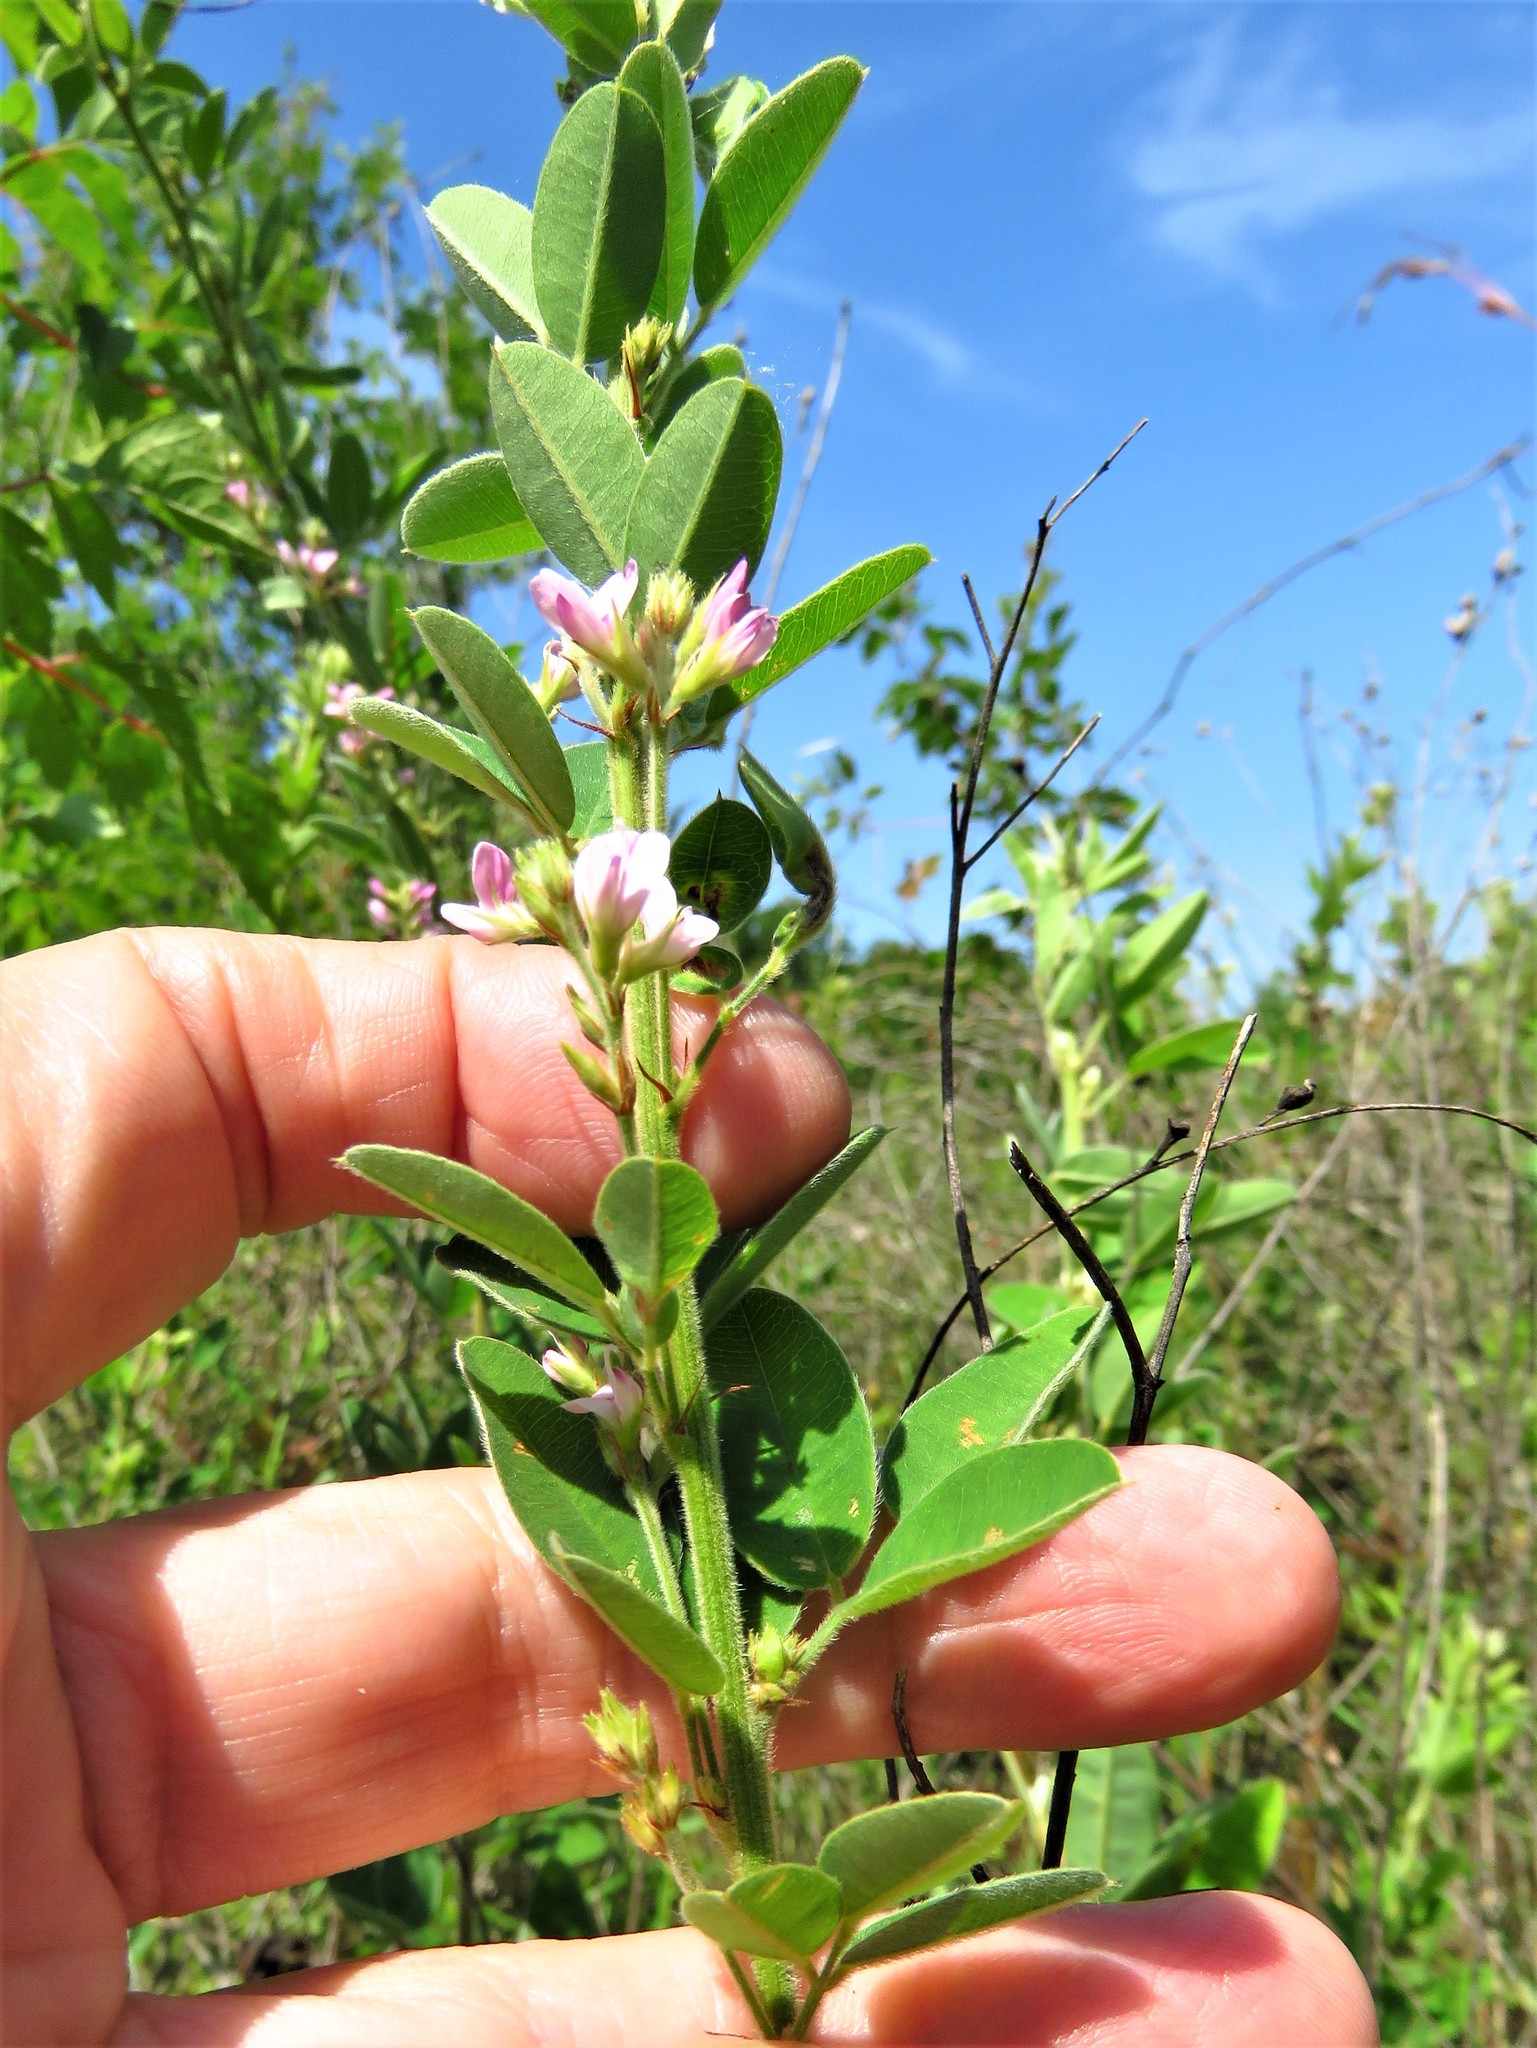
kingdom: Plantae
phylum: Tracheophyta
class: Magnoliopsida
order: Fabales
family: Fabaceae
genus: Lespedeza
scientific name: Lespedeza stuevei
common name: Tall bush-clover
